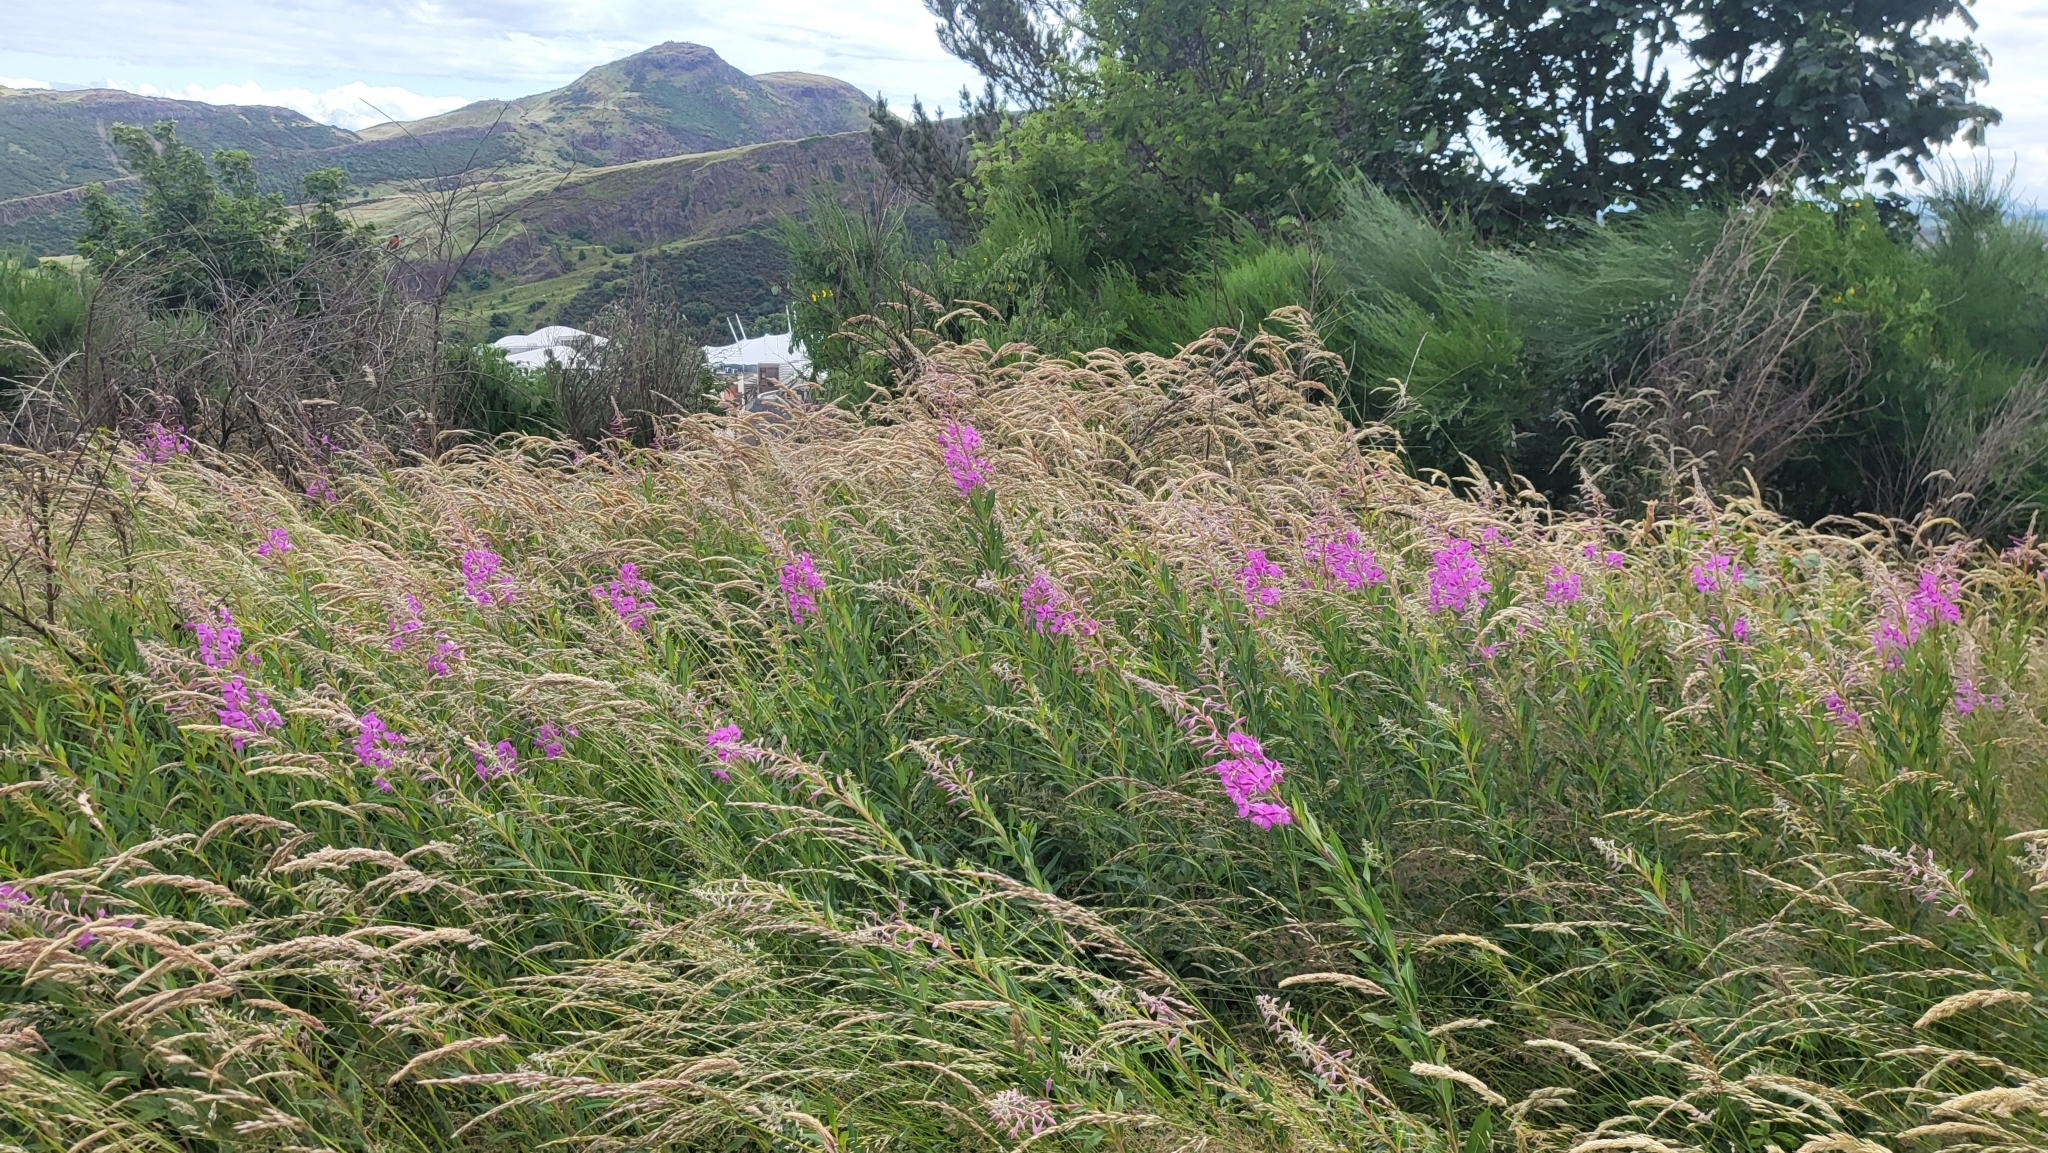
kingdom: Plantae
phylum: Tracheophyta
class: Magnoliopsida
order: Myrtales
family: Onagraceae
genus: Chamaenerion
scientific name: Chamaenerion angustifolium
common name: Fireweed
